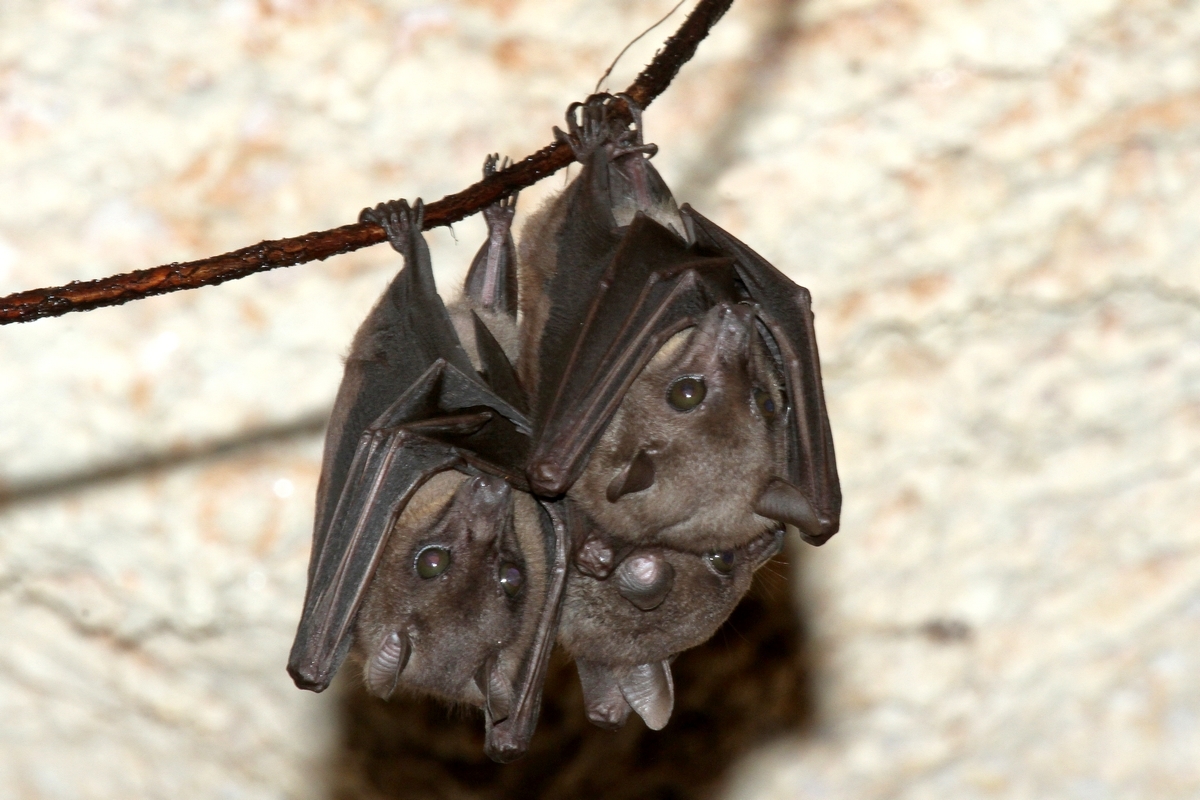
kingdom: Animalia
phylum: Chordata
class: Mammalia
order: Chiroptera
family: Pteropodidae
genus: Myonycteris
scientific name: Myonycteris angolensis
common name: Angolan rousette
